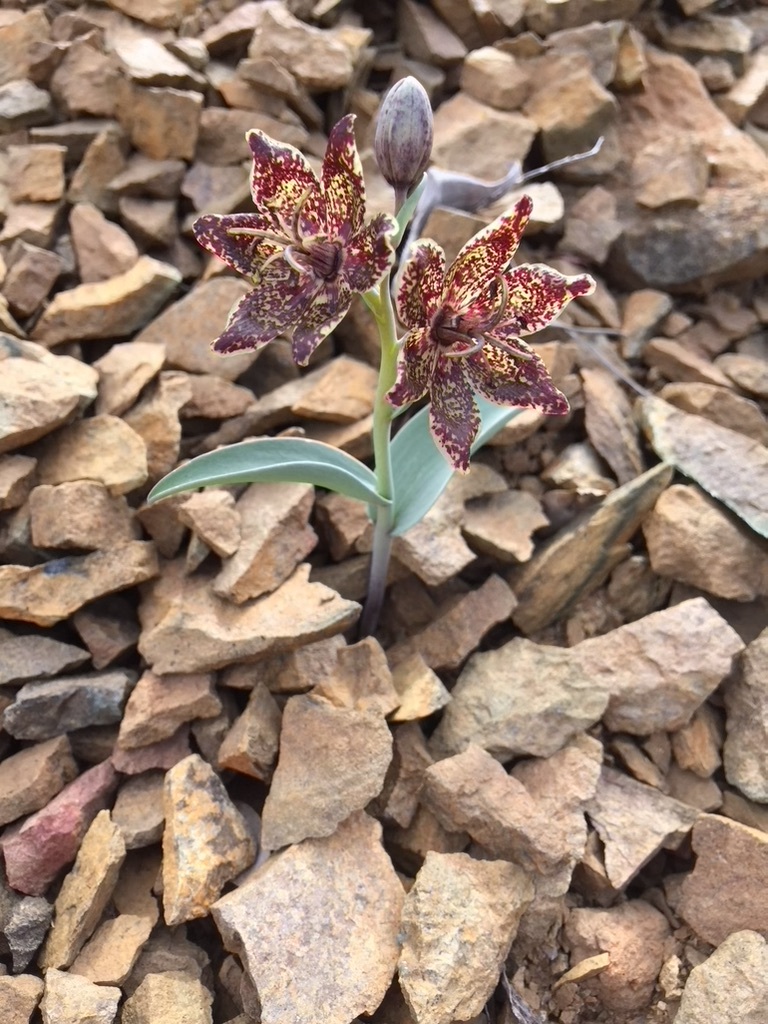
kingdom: Plantae
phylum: Tracheophyta
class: Liliopsida
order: Liliales
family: Liliaceae
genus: Fritillaria
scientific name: Fritillaria falcata
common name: Talus fritillary
